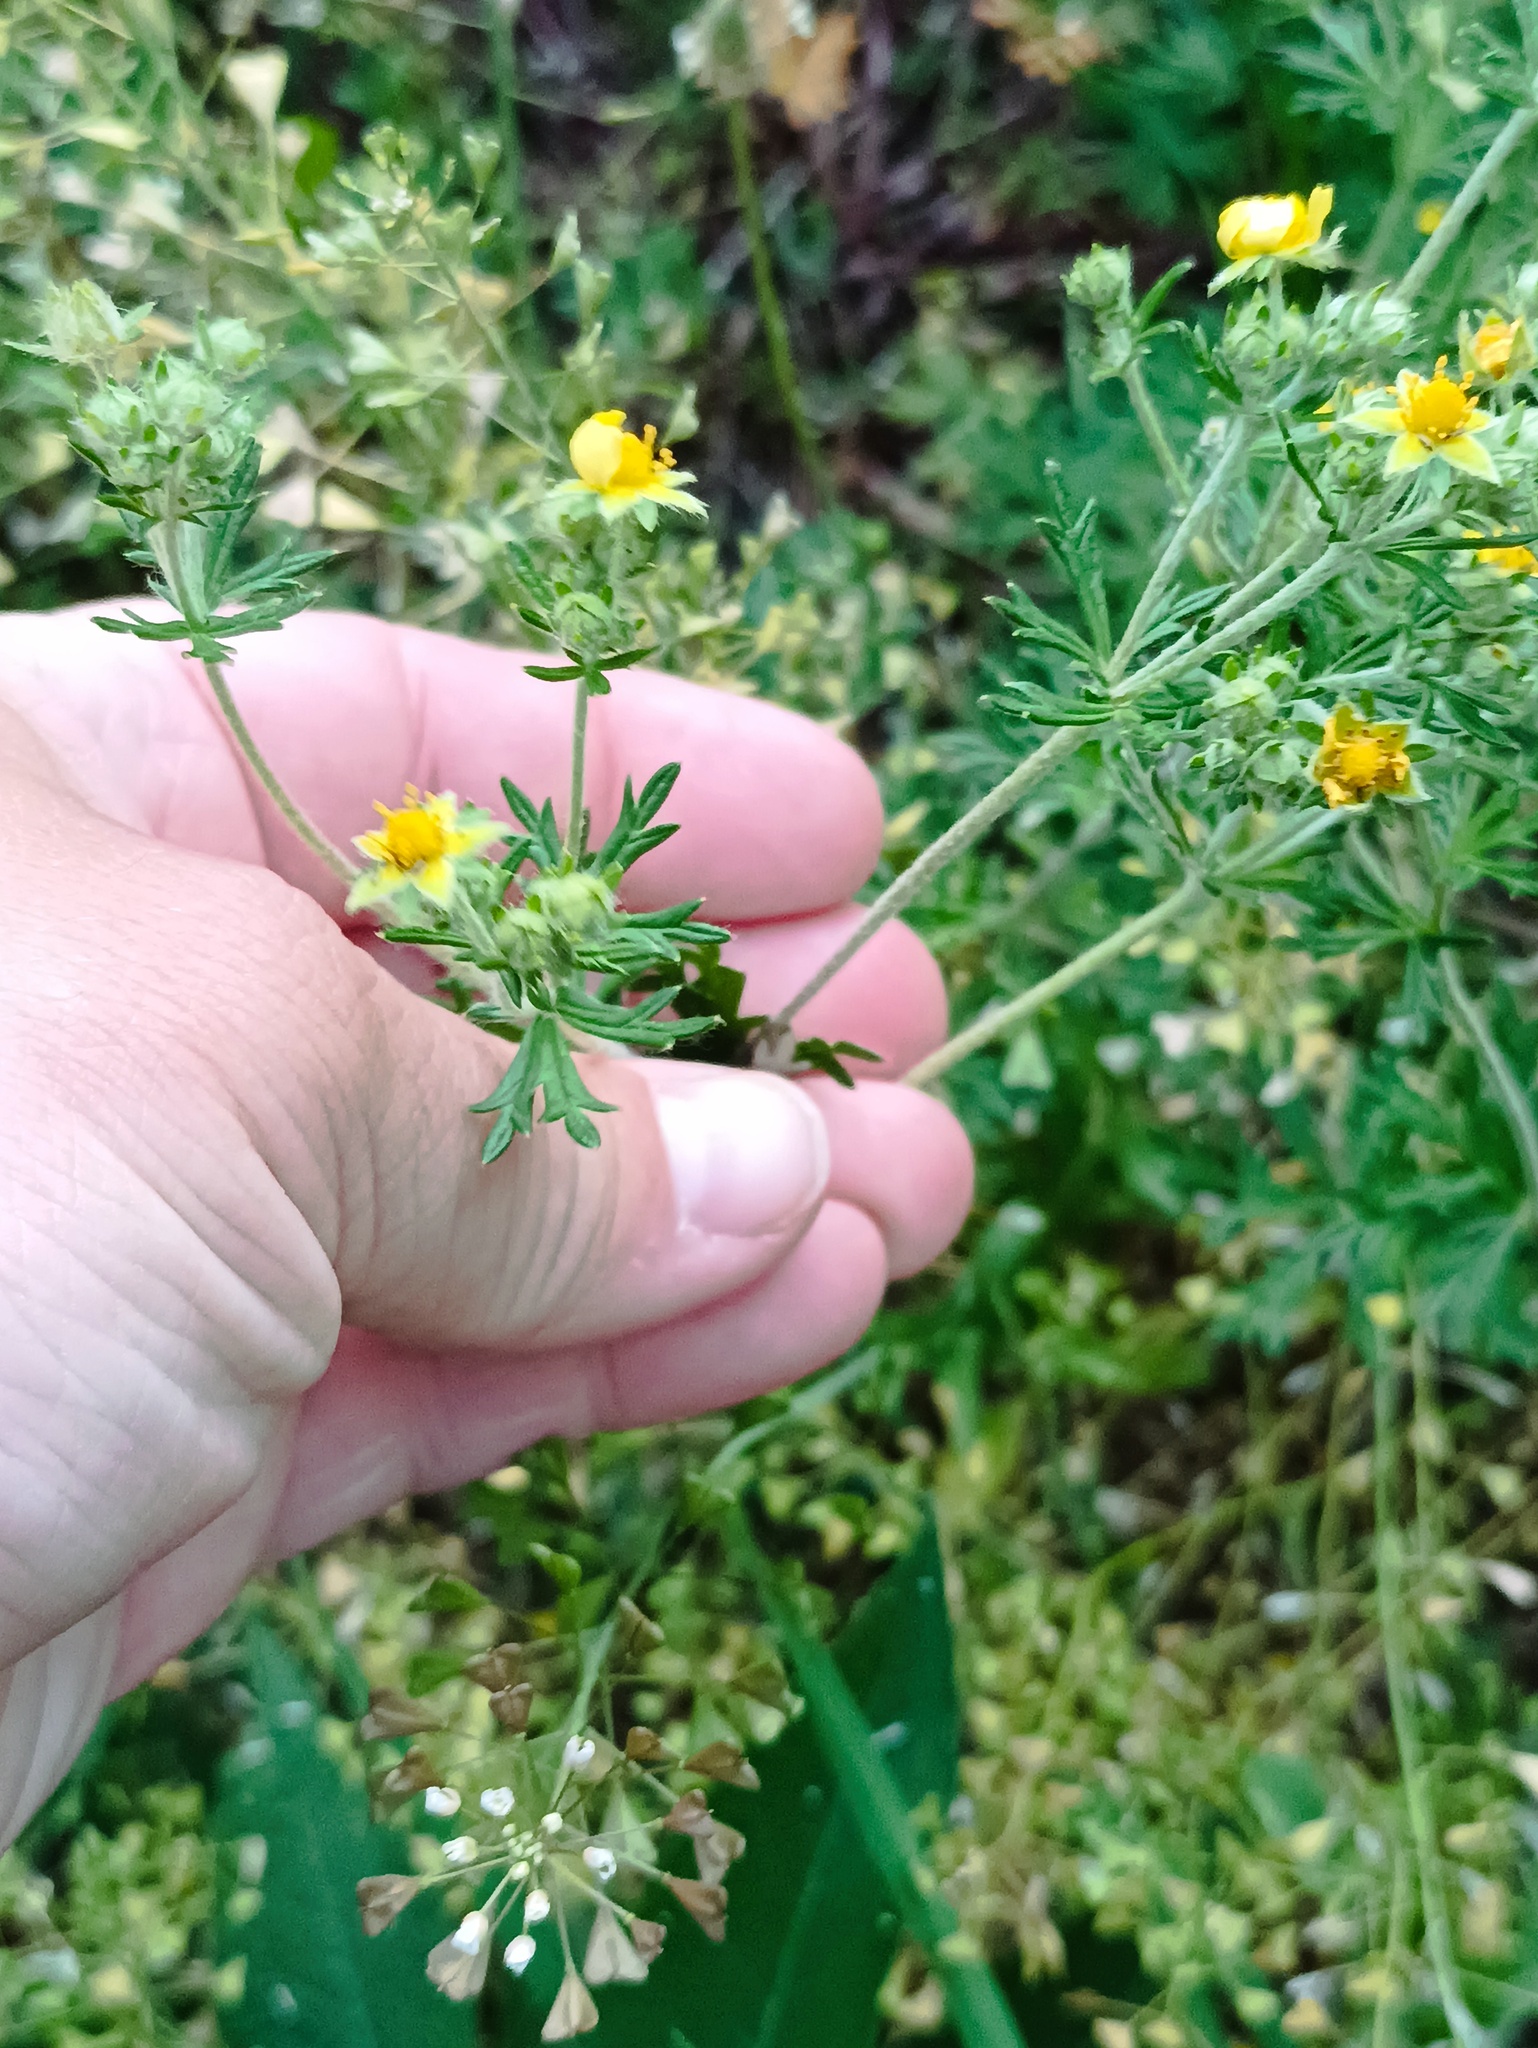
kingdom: Plantae
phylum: Tracheophyta
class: Magnoliopsida
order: Rosales
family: Rosaceae
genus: Potentilla
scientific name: Potentilla argentea
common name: Hoary cinquefoil
